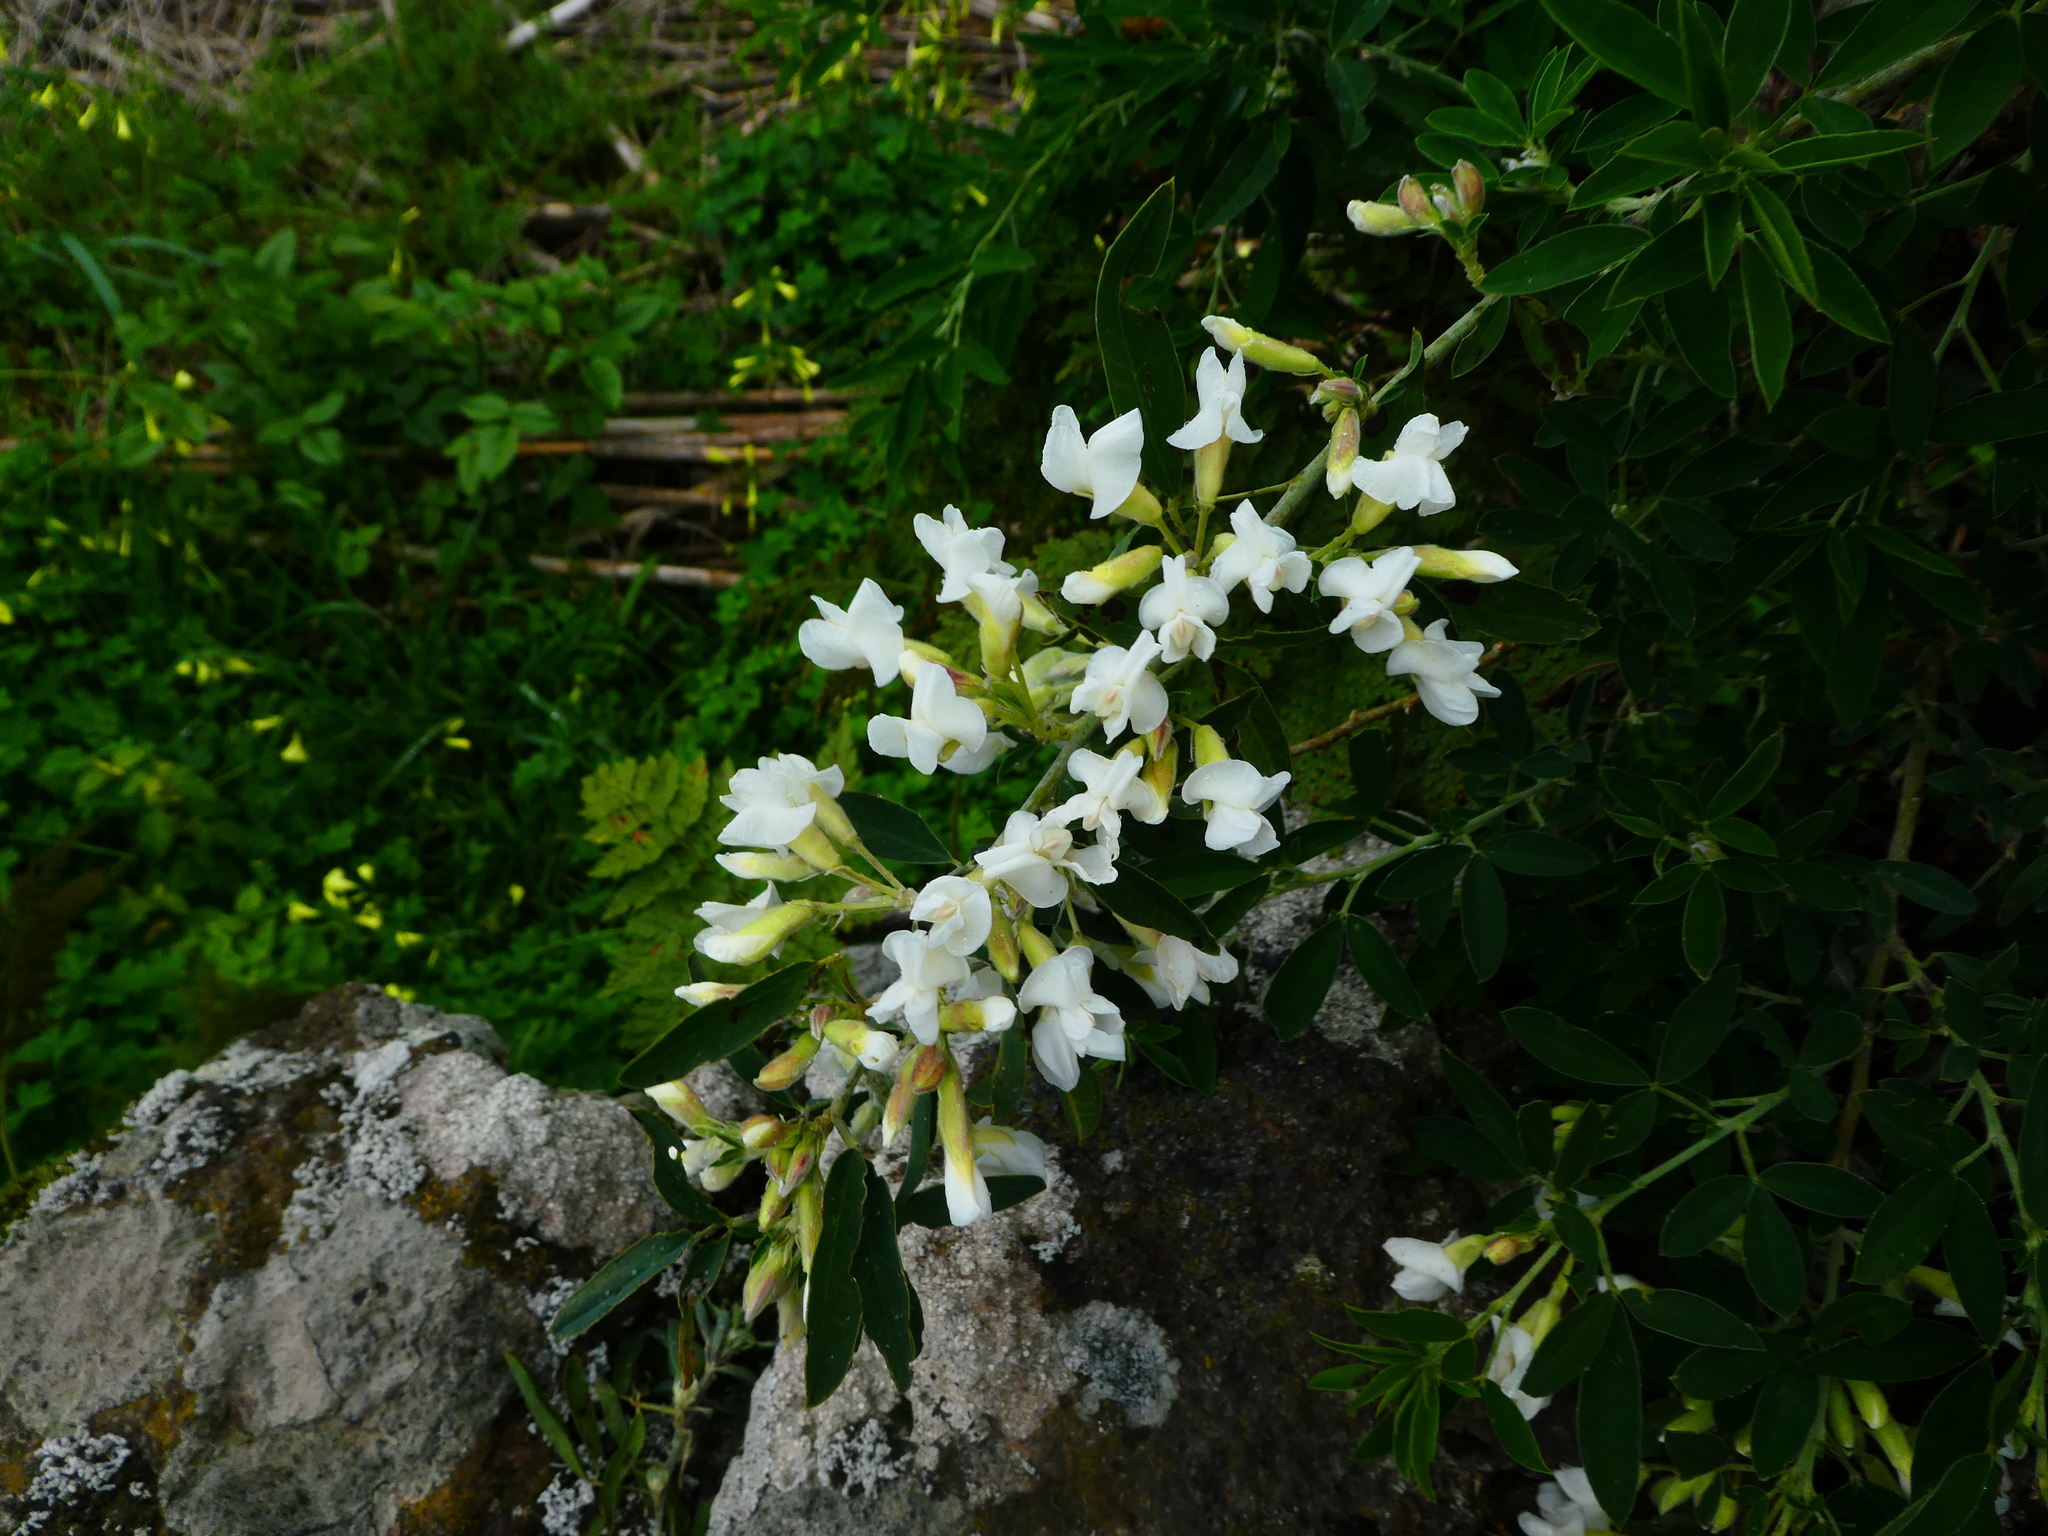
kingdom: Plantae
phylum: Tracheophyta
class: Magnoliopsida
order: Fabales
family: Fabaceae
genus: Chamaecytisus
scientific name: Chamaecytisus prolifer
